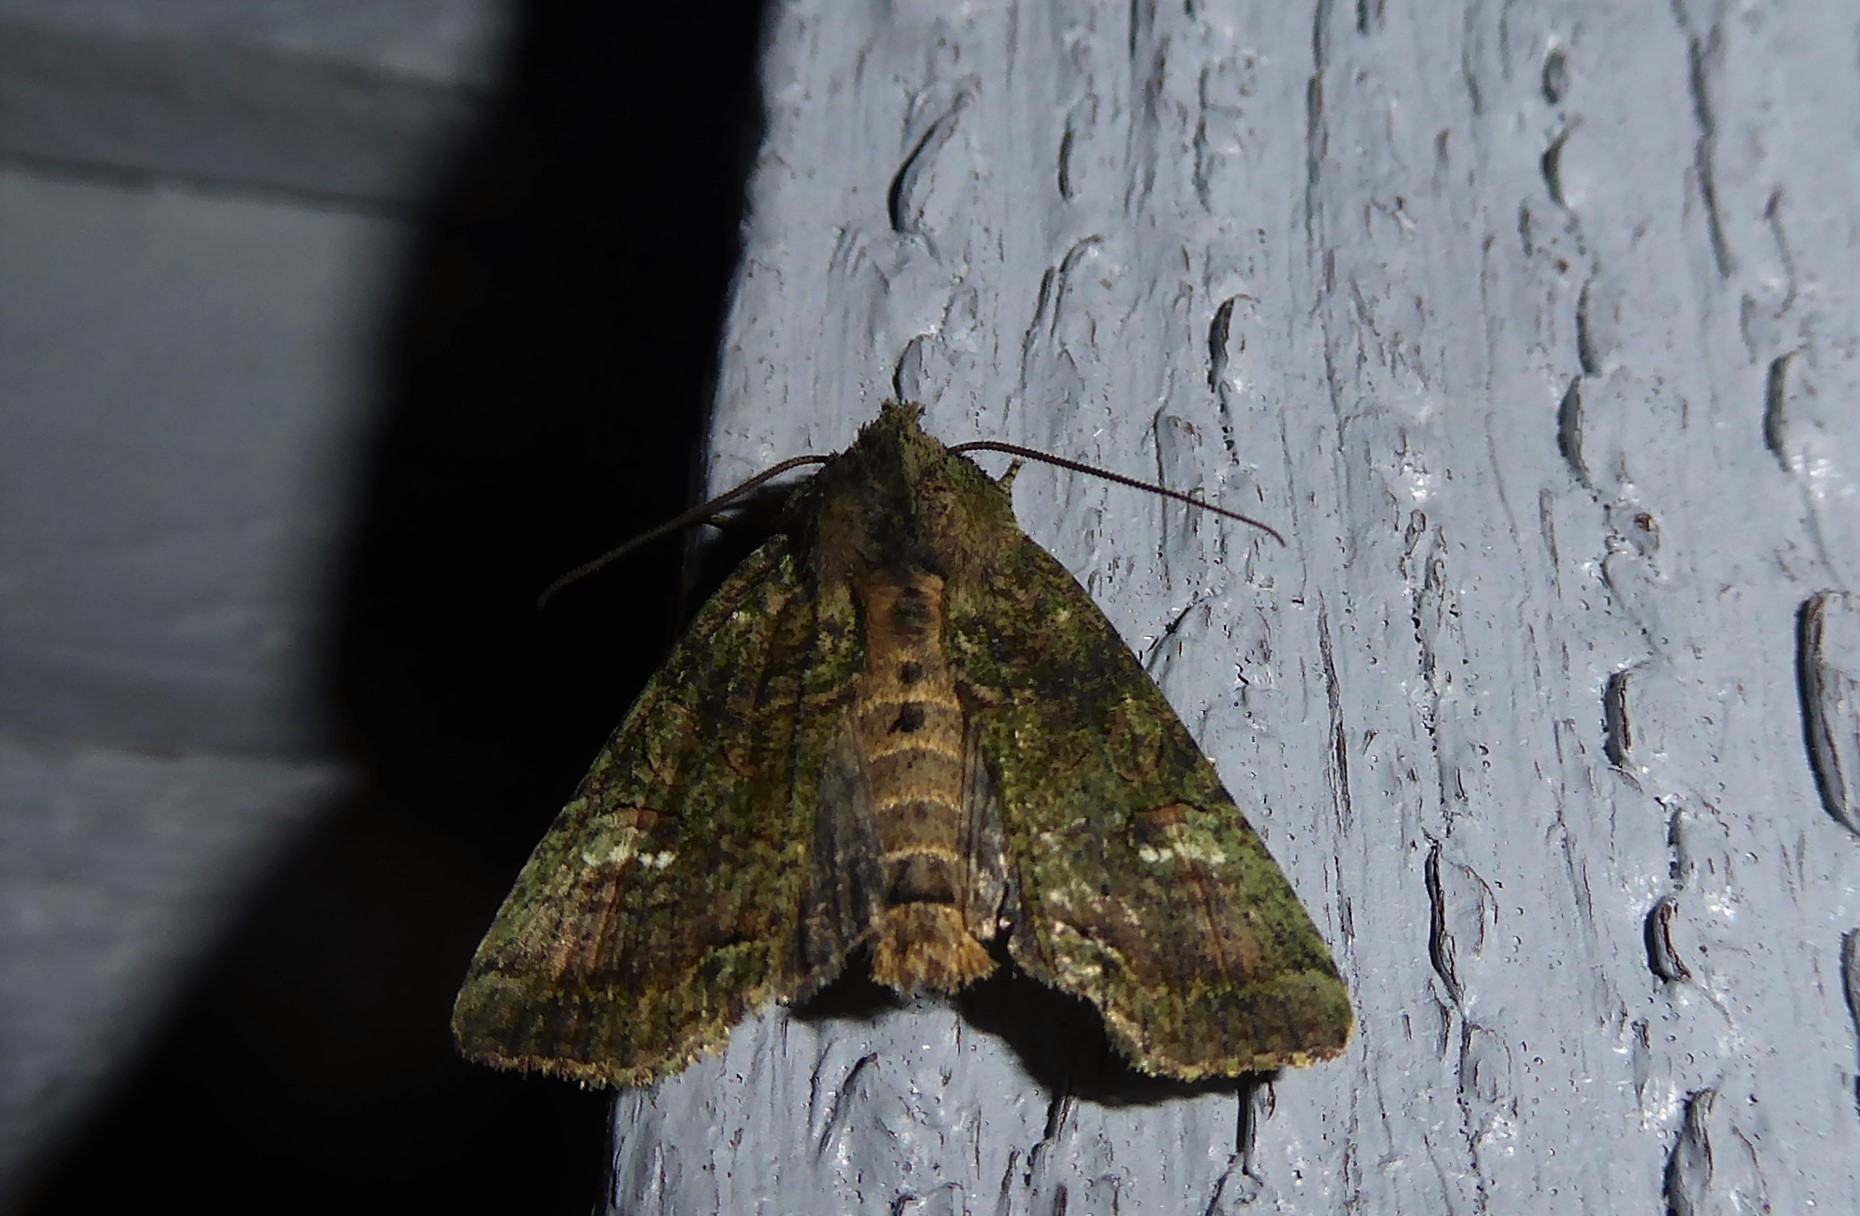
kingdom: Animalia
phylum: Arthropoda
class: Insecta
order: Lepidoptera
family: Noctuidae
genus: Meterana
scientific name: Meterana levis
